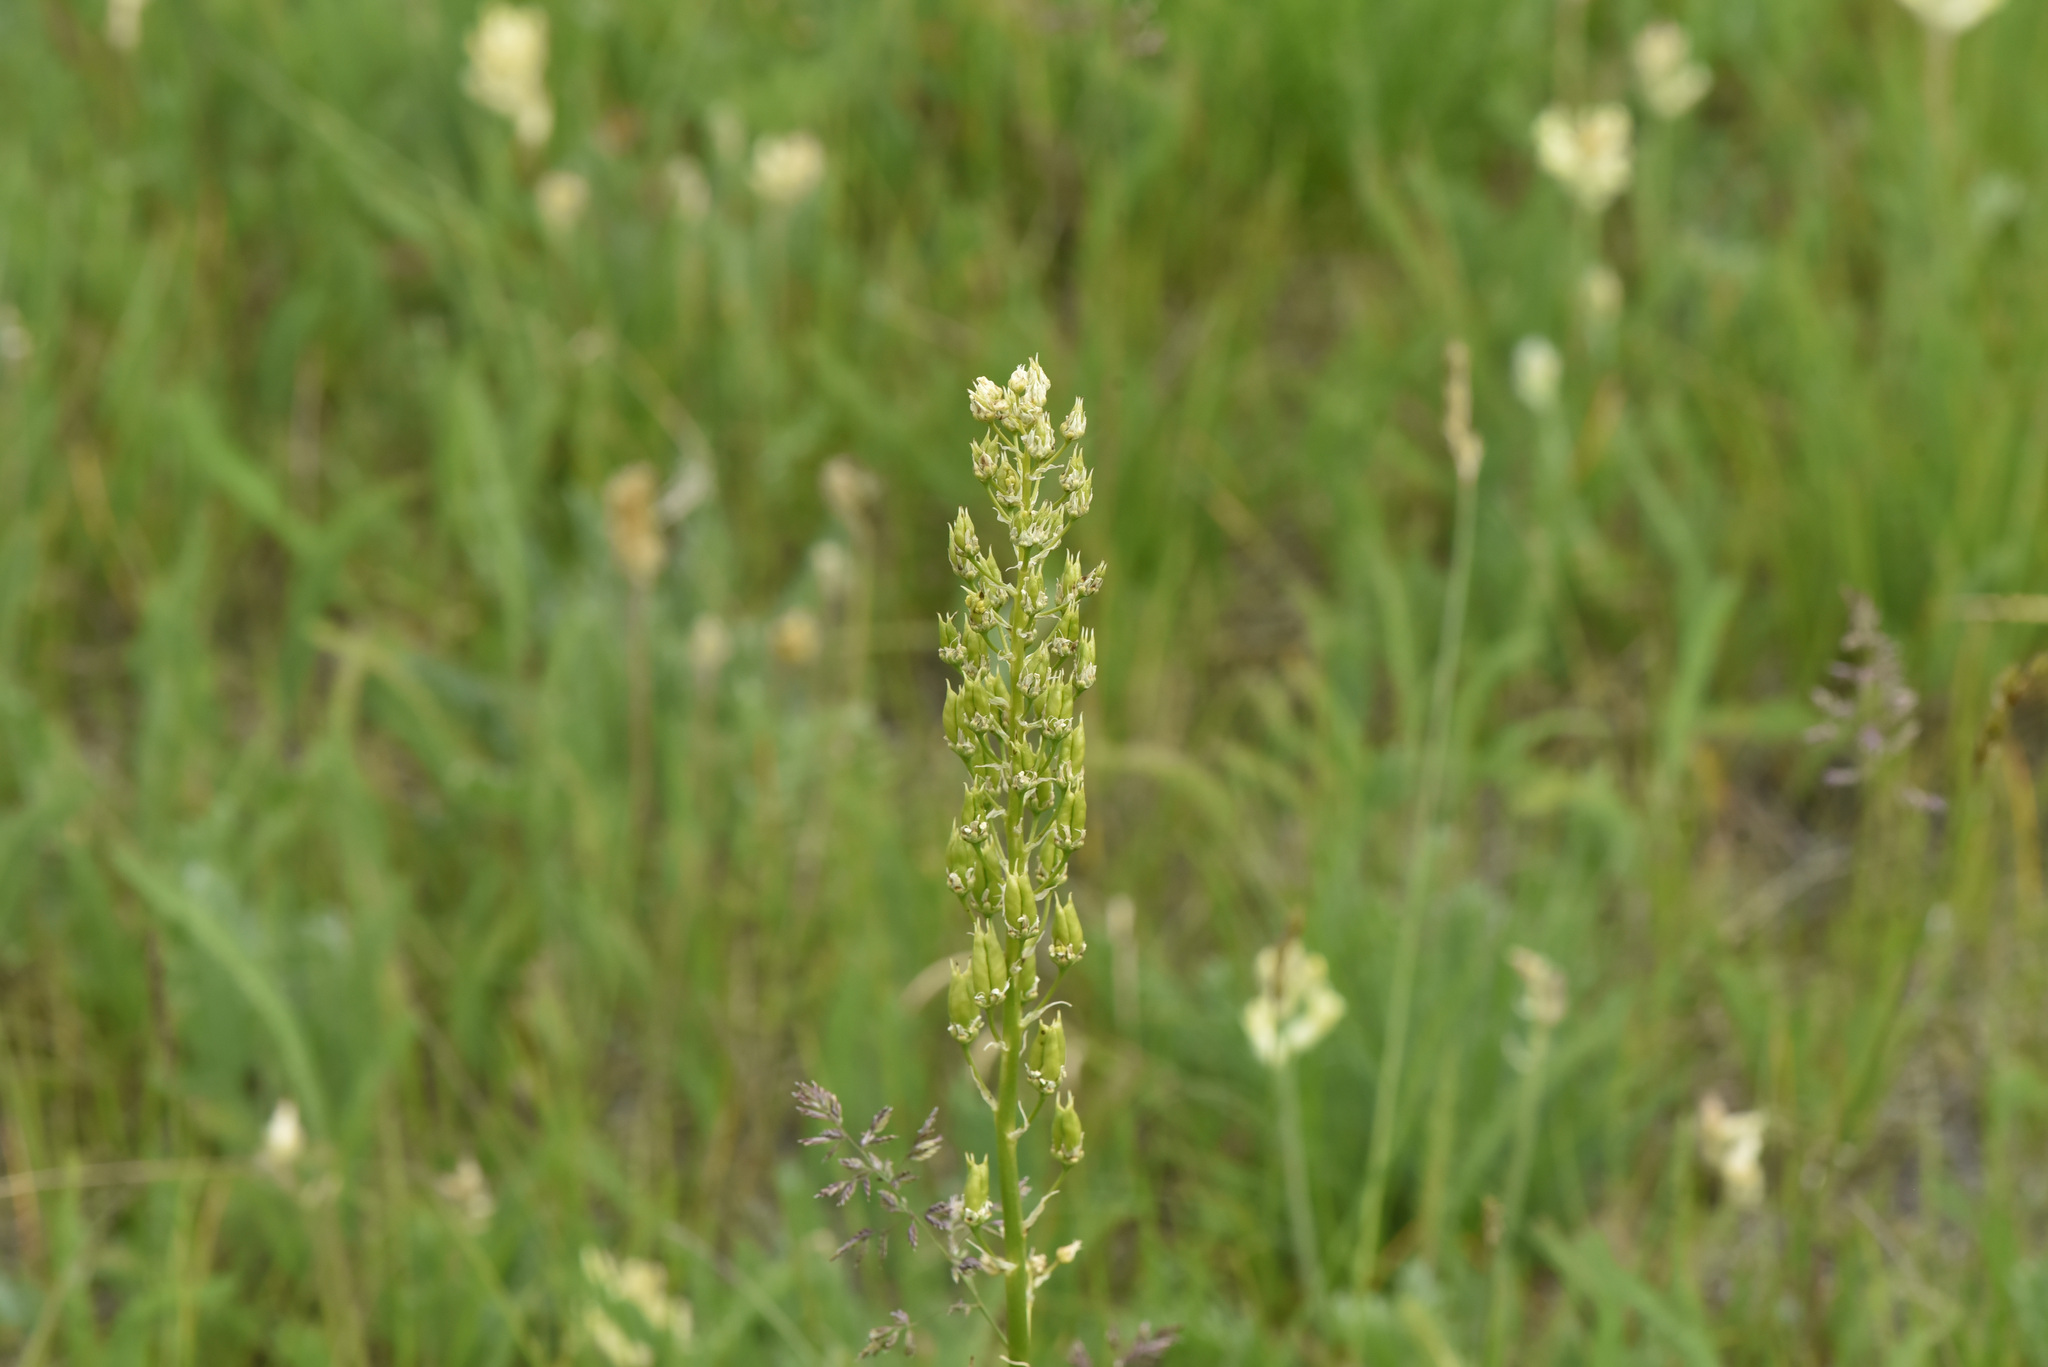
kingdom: Plantae
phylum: Tracheophyta
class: Liliopsida
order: Liliales
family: Melanthiaceae
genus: Toxicoscordion
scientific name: Toxicoscordion venenosum
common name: Meadow death camas
